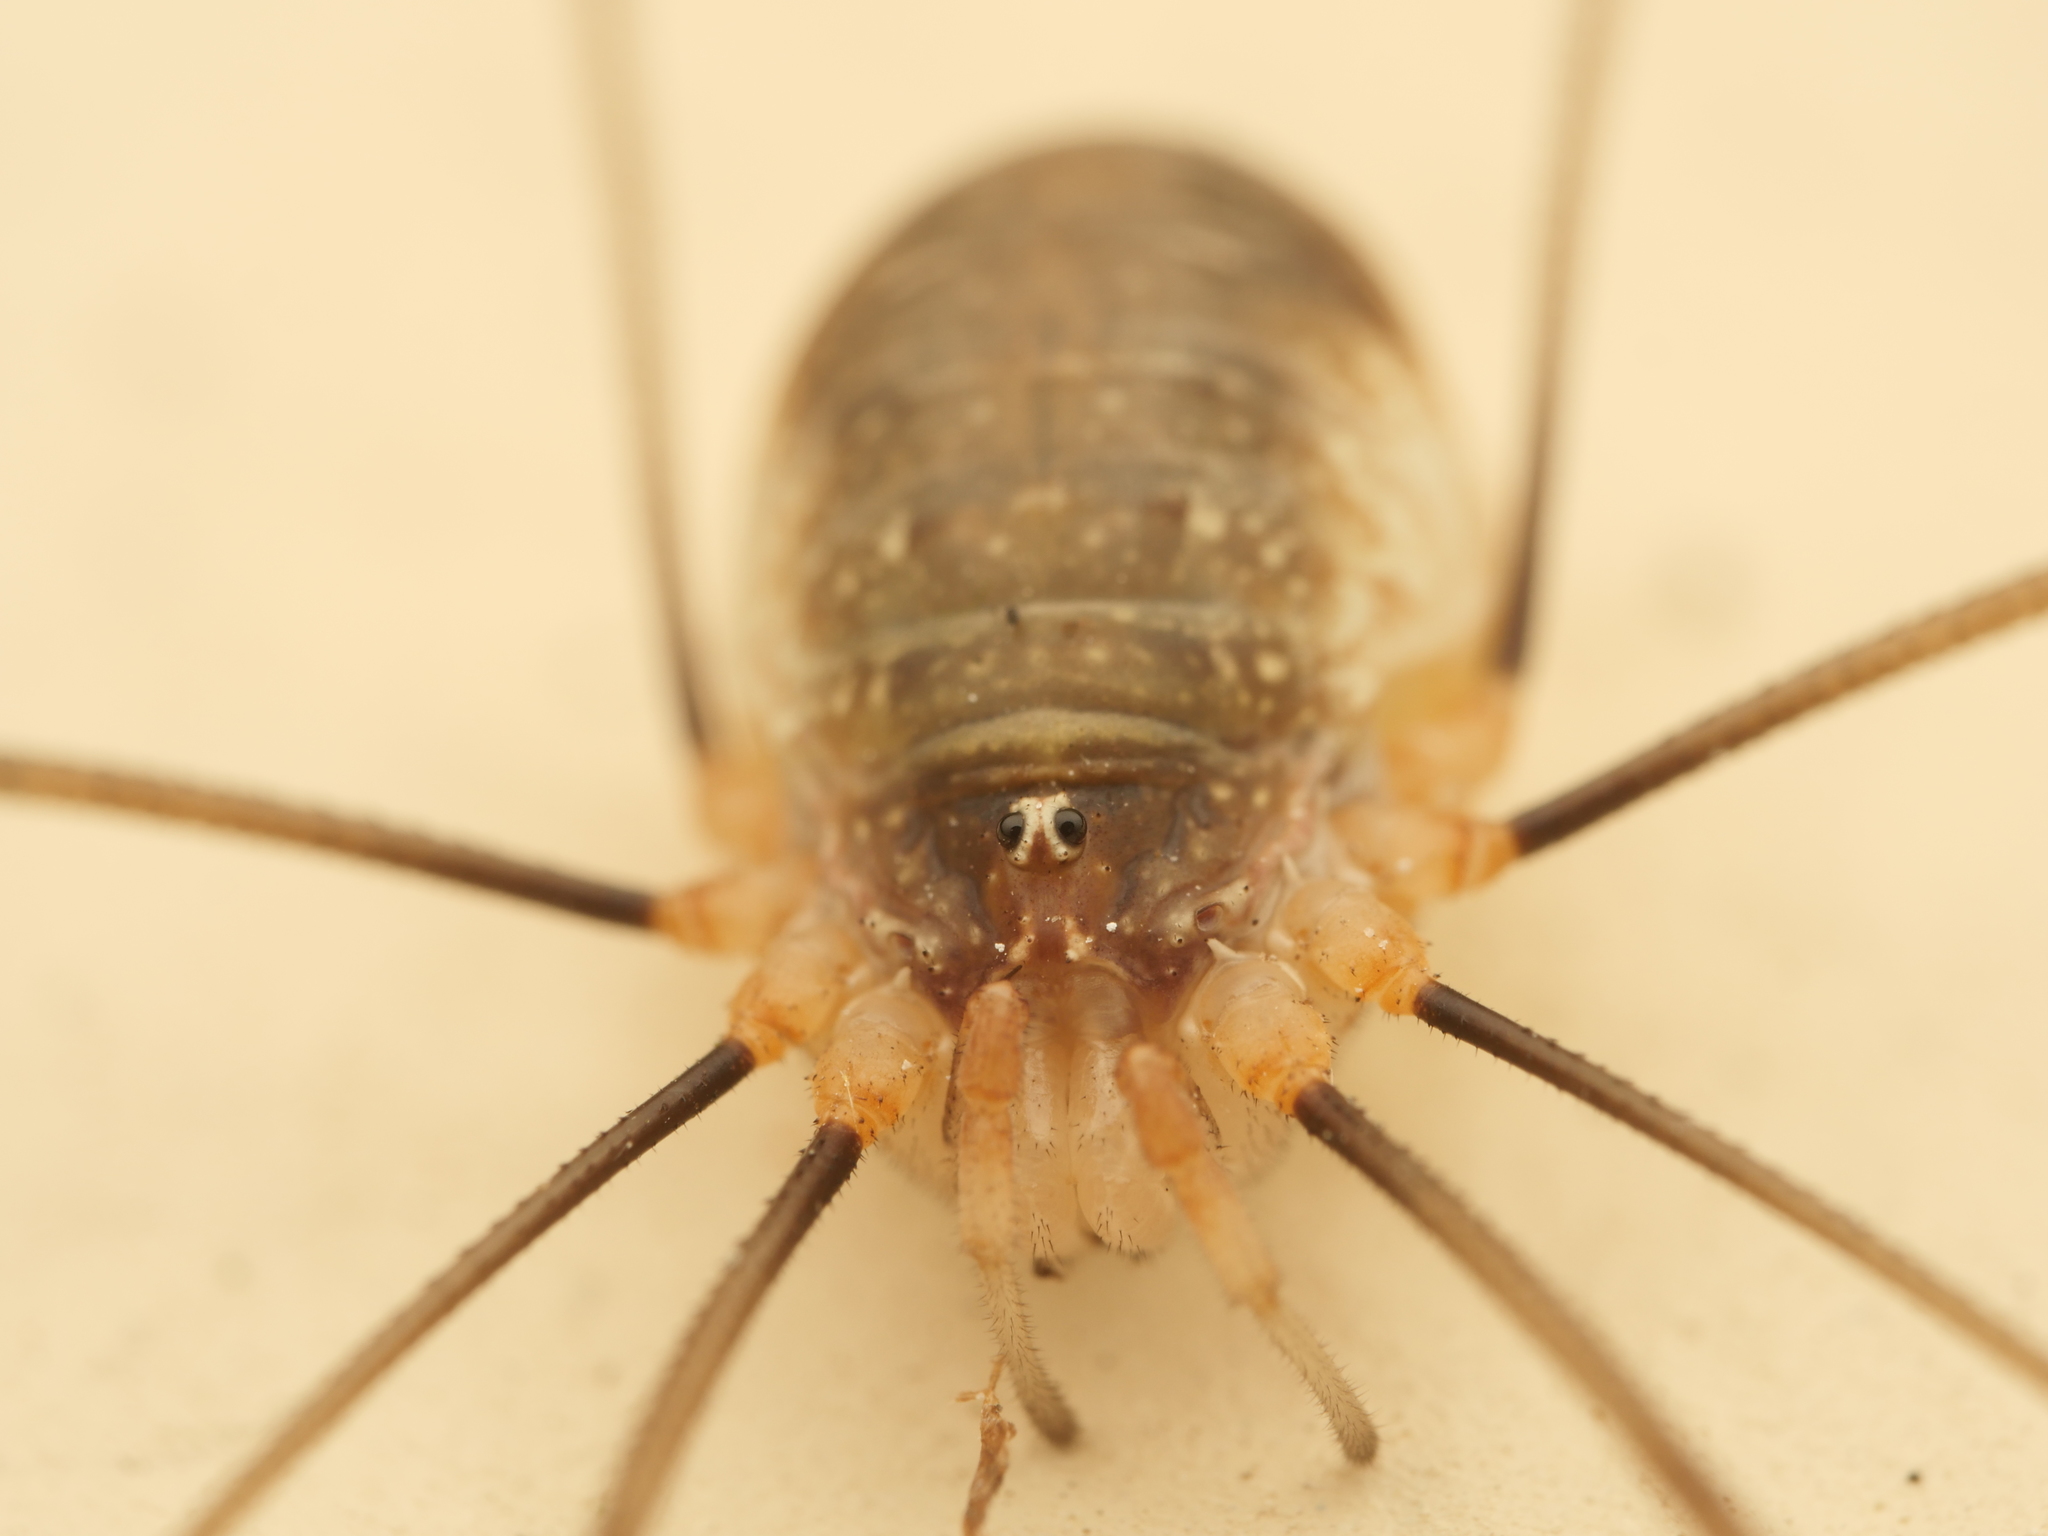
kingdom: Animalia
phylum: Arthropoda
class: Arachnida
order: Opiliones
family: Phalangiidae
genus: Opilio
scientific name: Opilio canestrinii
